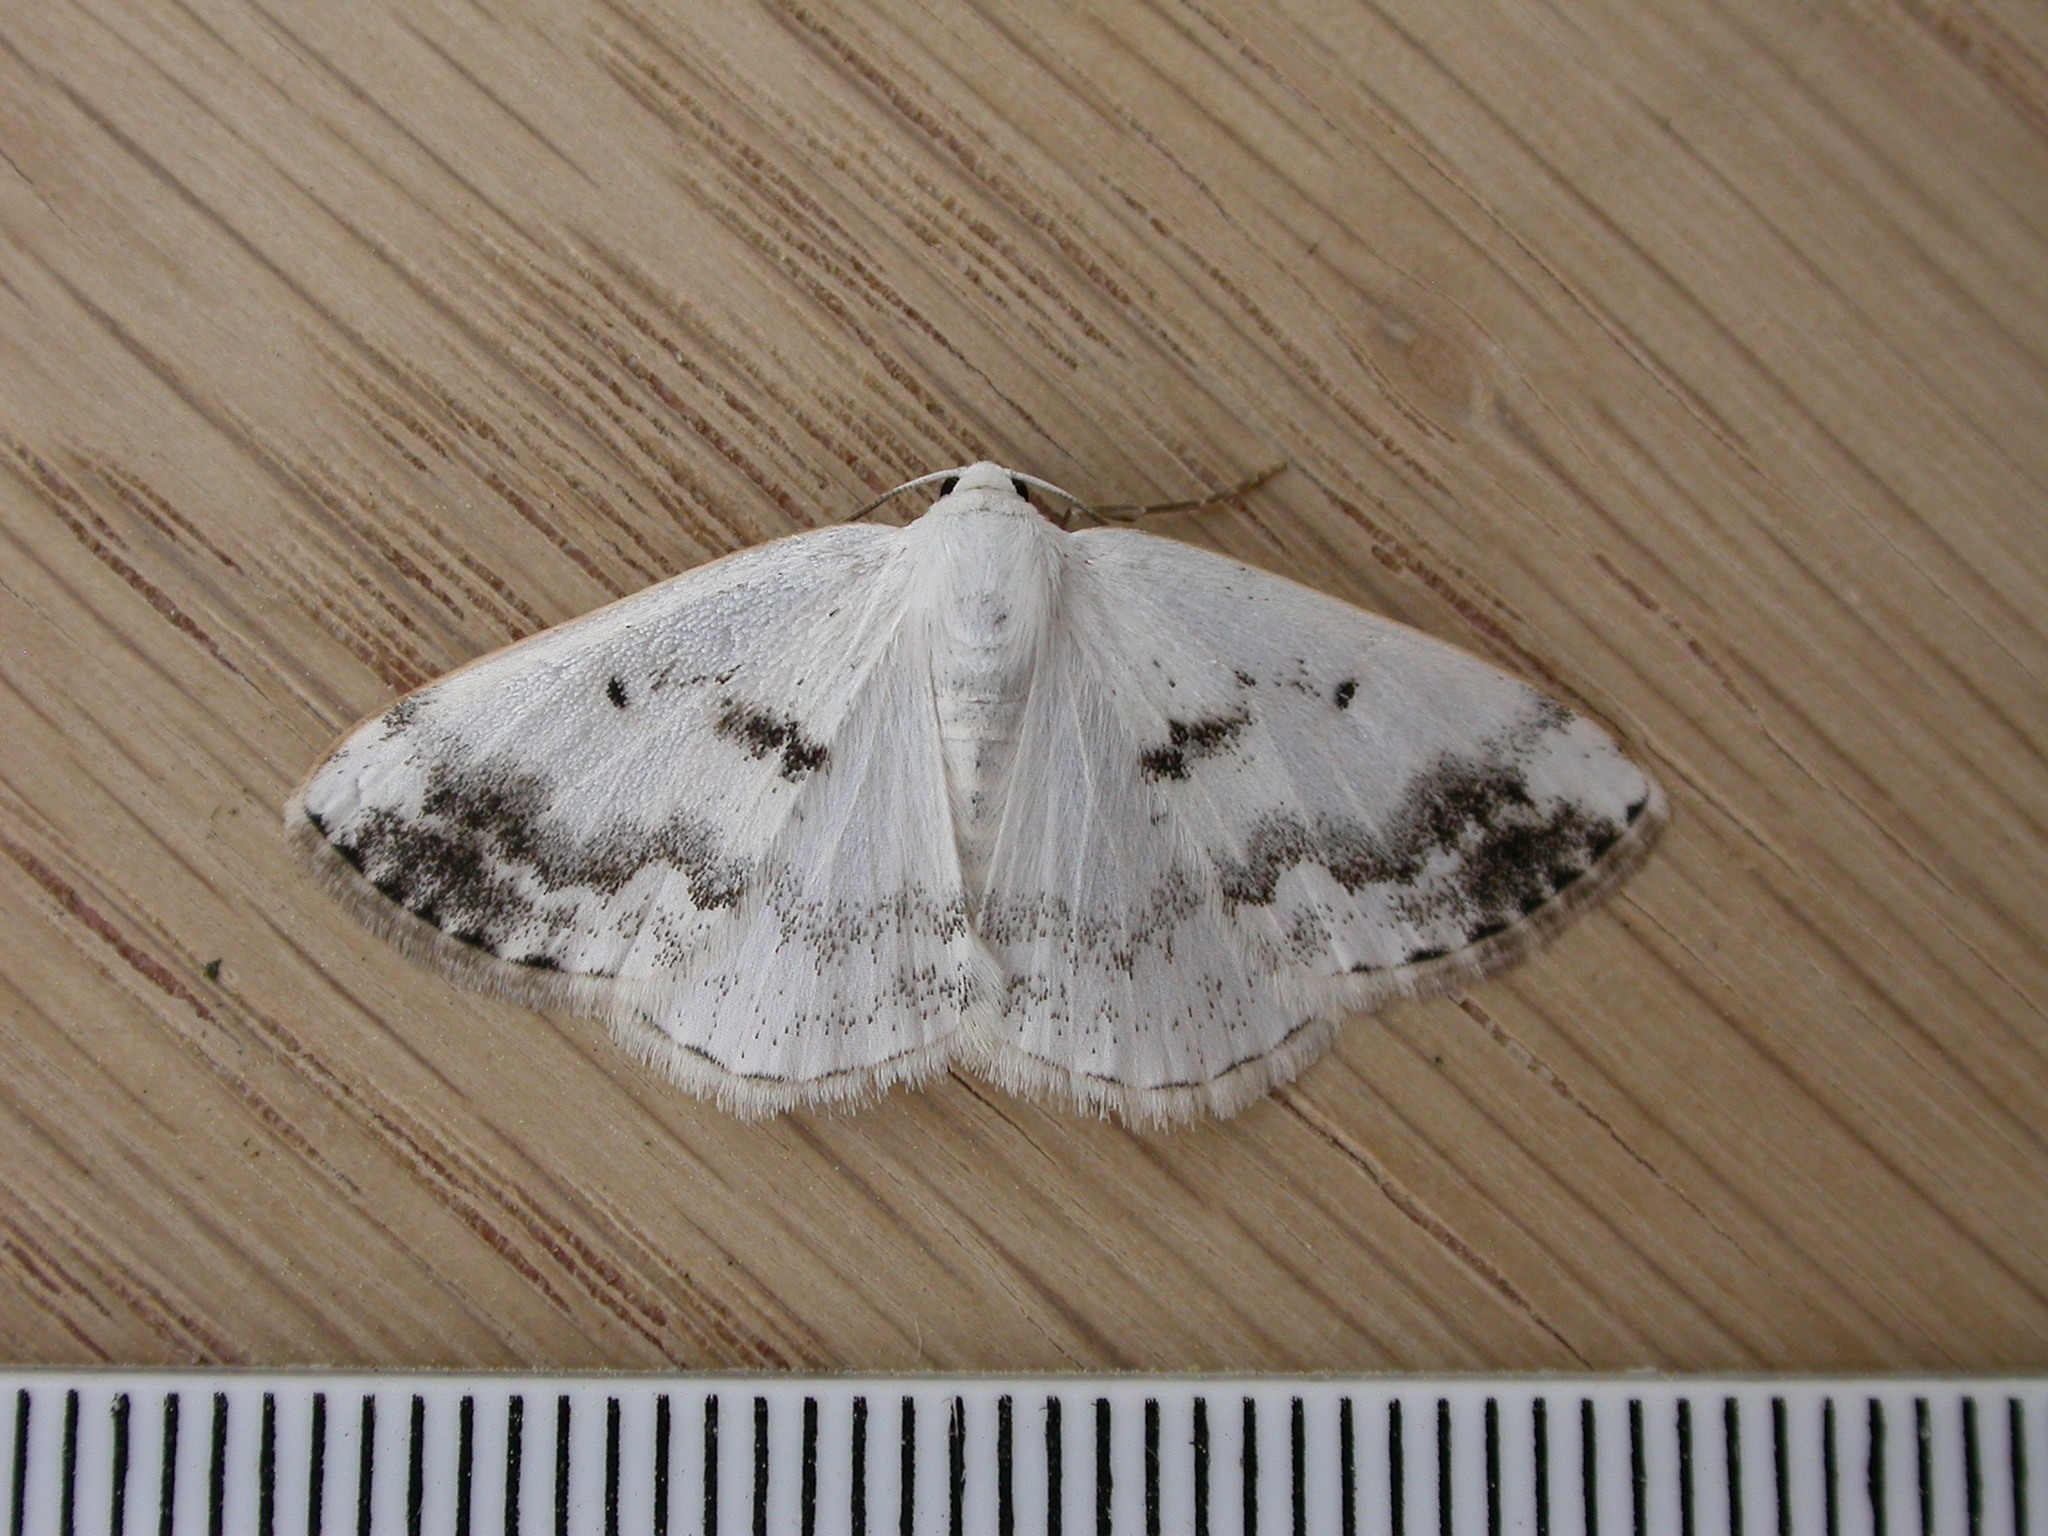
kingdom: Animalia
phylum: Arthropoda
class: Insecta
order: Lepidoptera
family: Geometridae
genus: Lomographa
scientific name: Lomographa temerata
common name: Clouded silver
